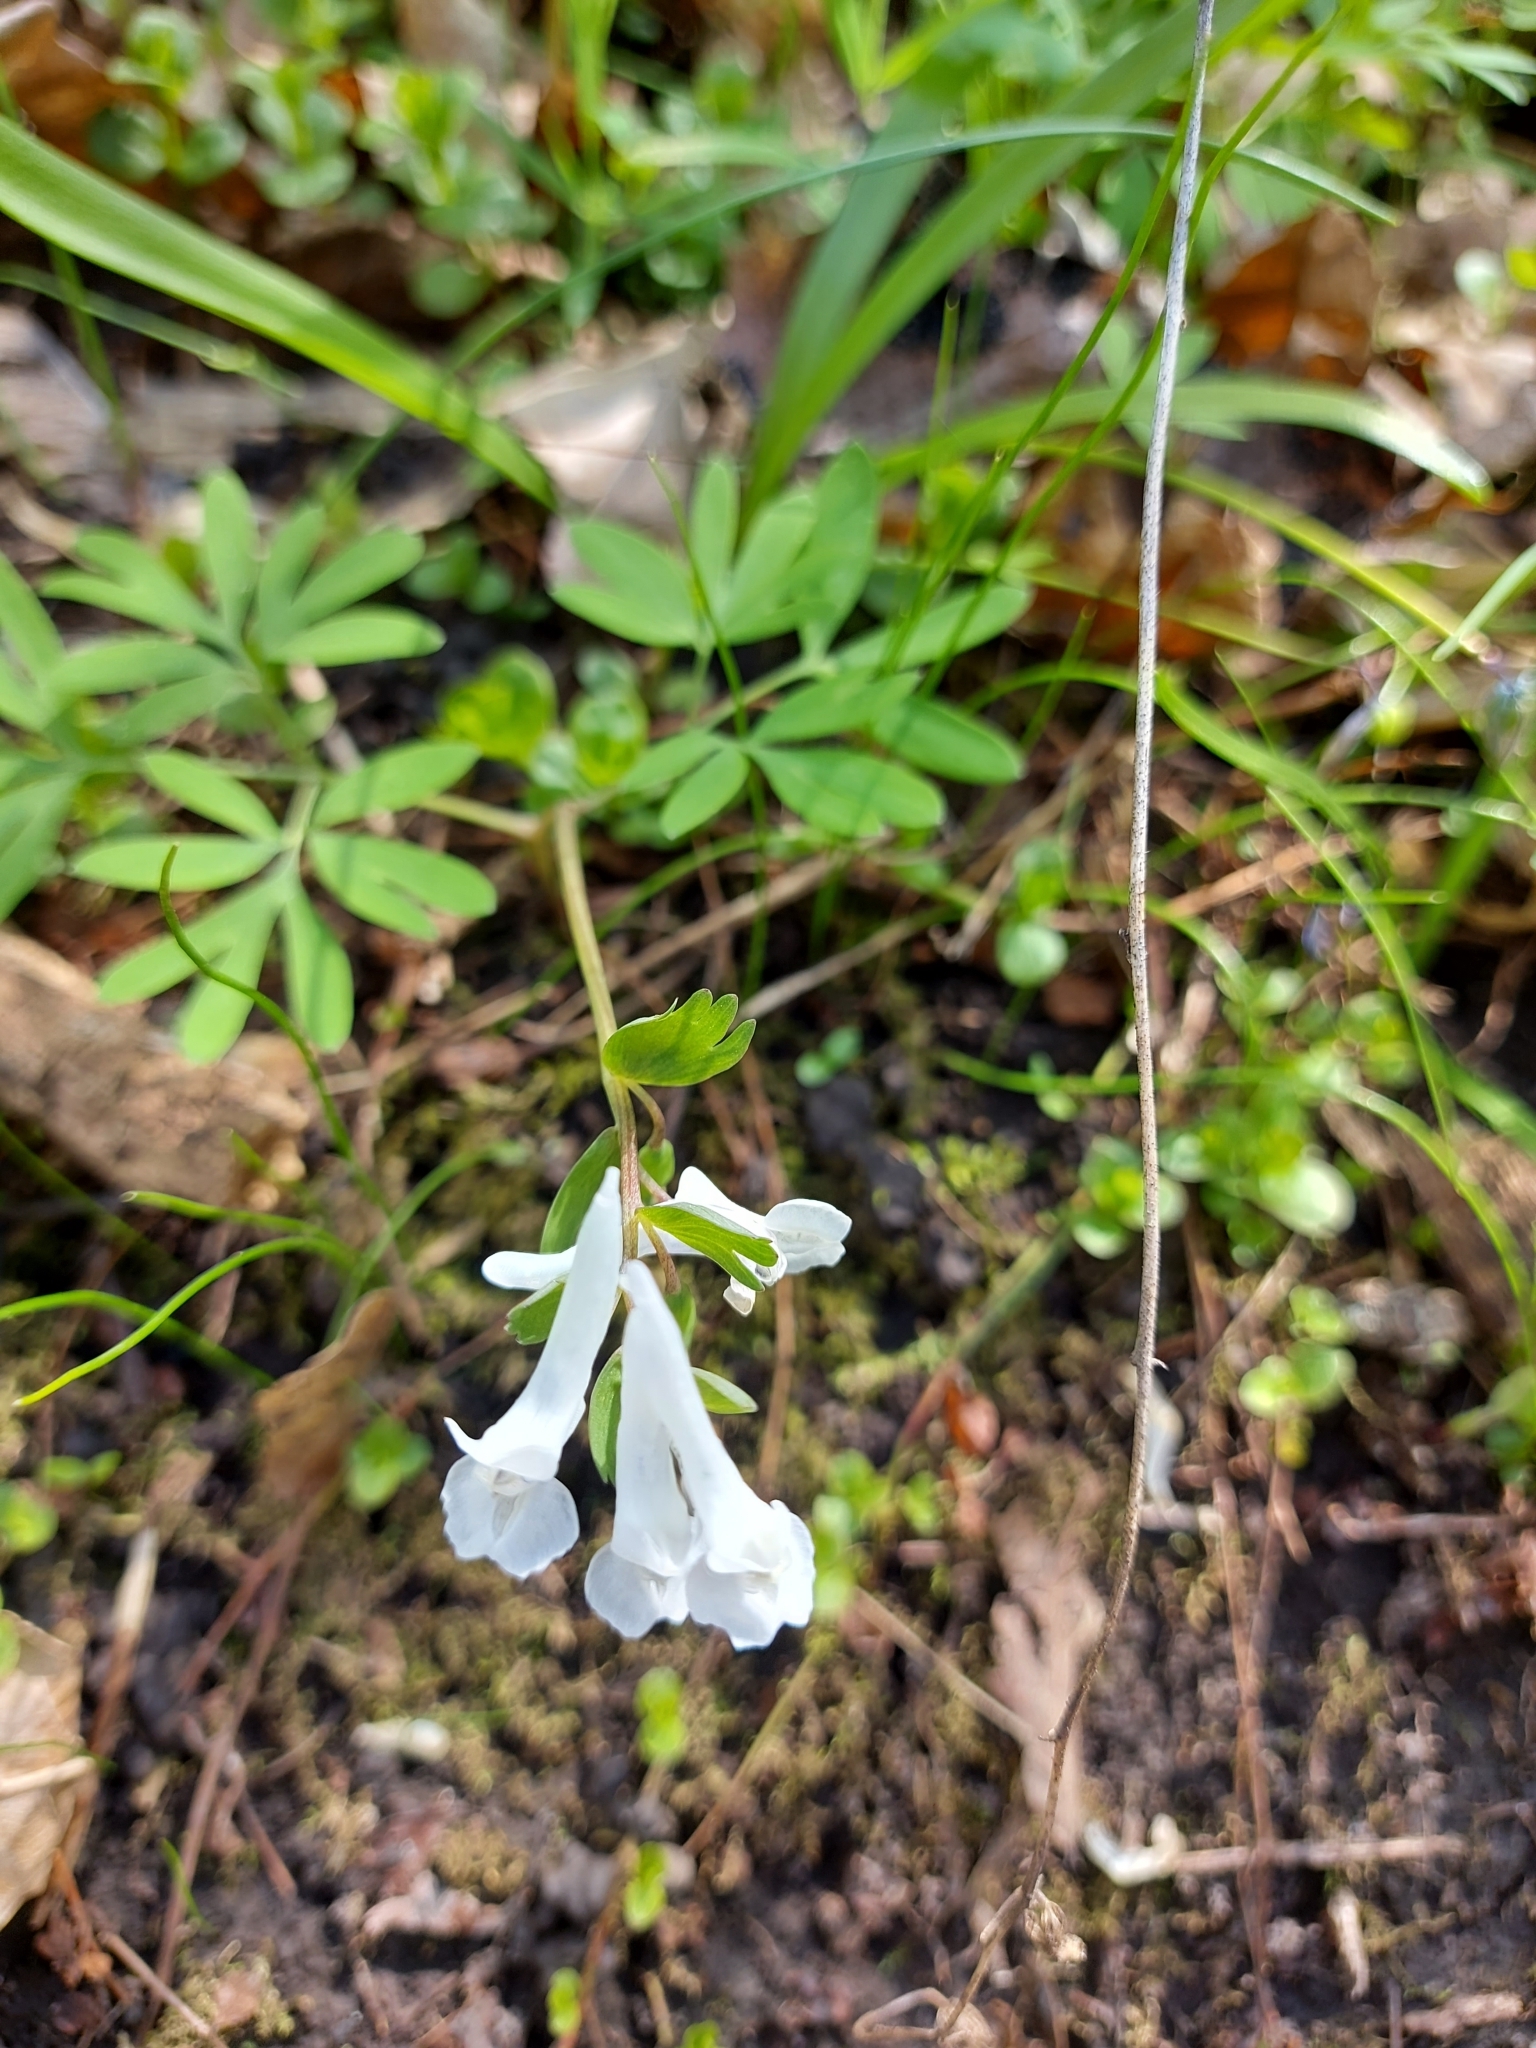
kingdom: Plantae
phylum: Tracheophyta
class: Magnoliopsida
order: Ranunculales
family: Papaveraceae
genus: Corydalis
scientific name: Corydalis solida
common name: Bird-in-a-bush
